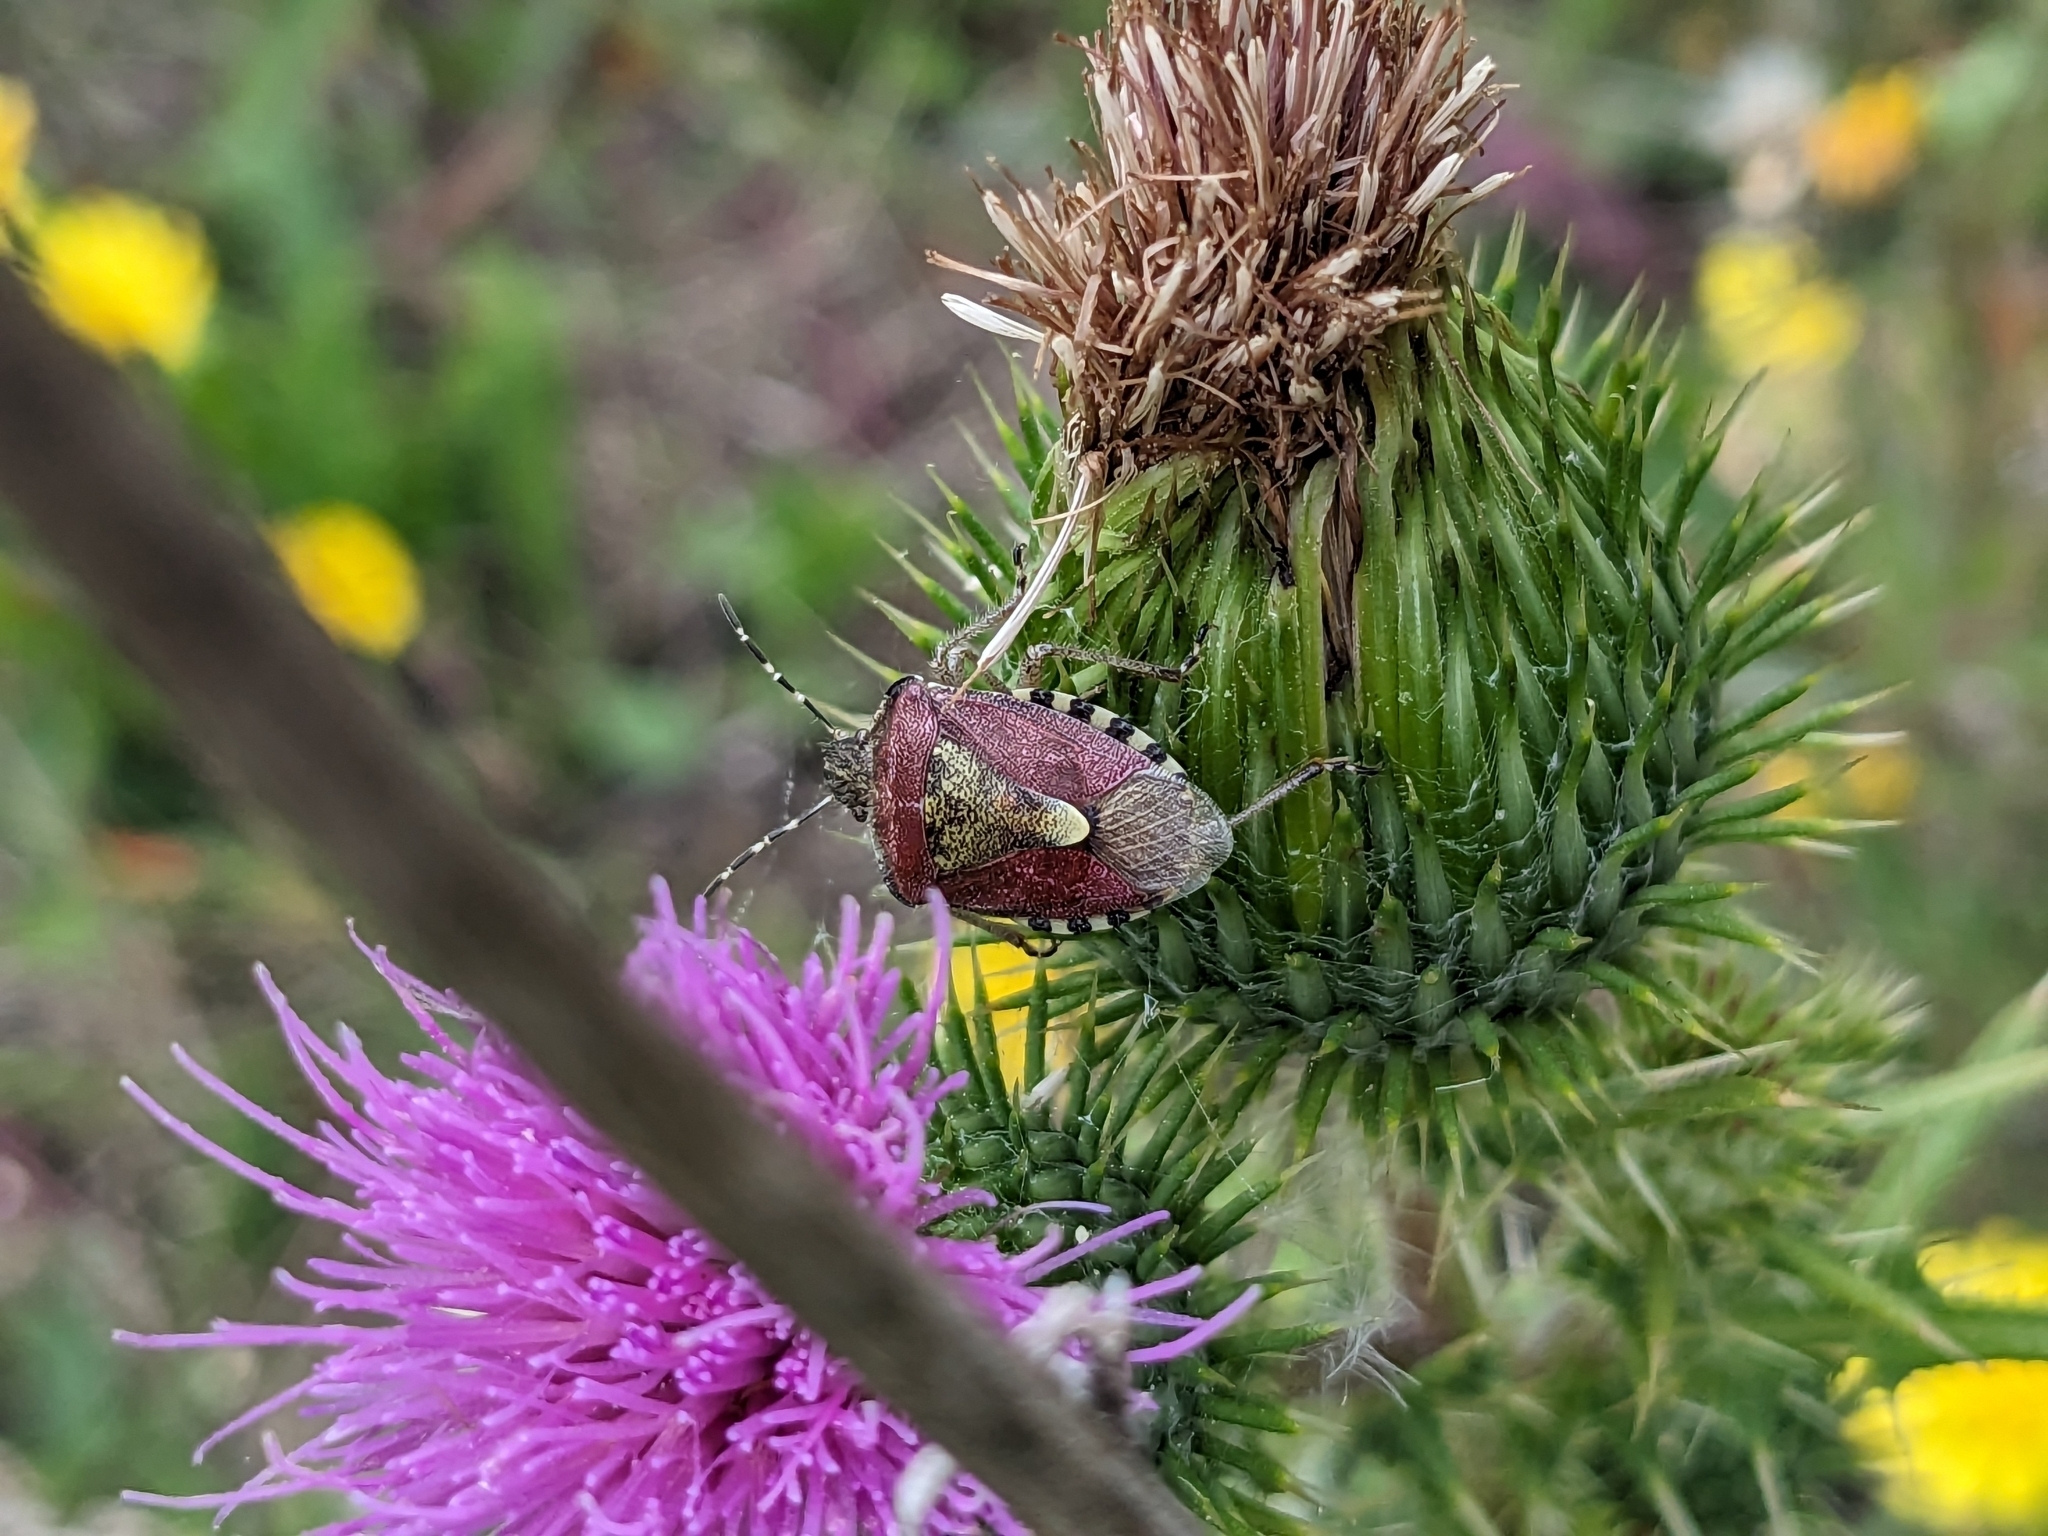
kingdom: Animalia
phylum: Arthropoda
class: Insecta
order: Hemiptera
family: Pentatomidae
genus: Dolycoris
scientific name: Dolycoris baccarum
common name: Sloe bug
